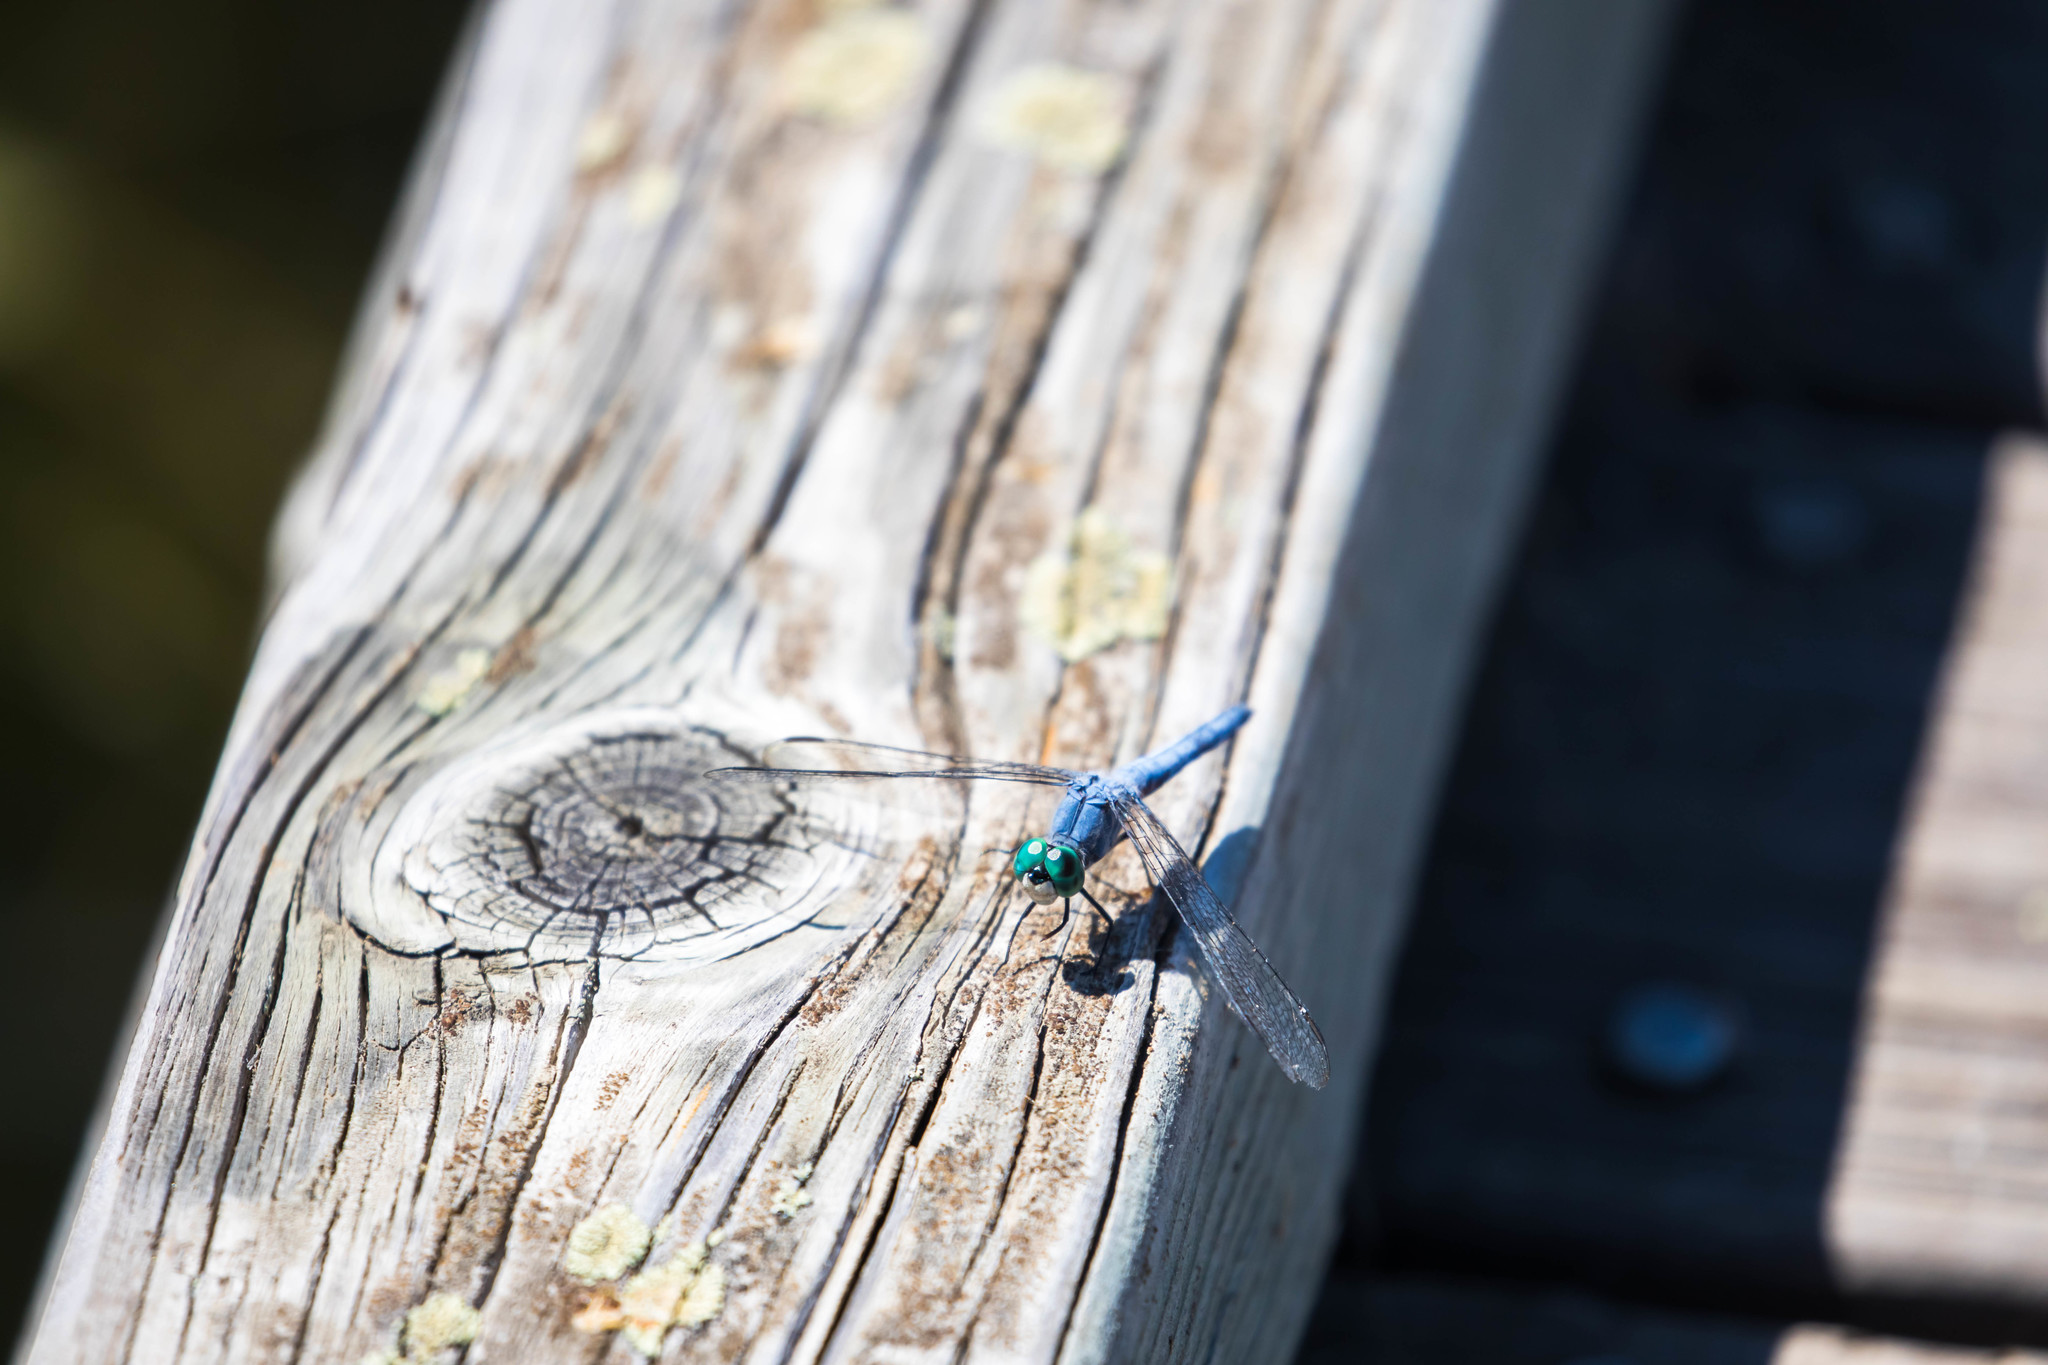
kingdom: Animalia
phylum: Arthropoda
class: Insecta
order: Odonata
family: Libellulidae
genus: Pachydiplax
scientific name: Pachydiplax longipennis
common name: Blue dasher
